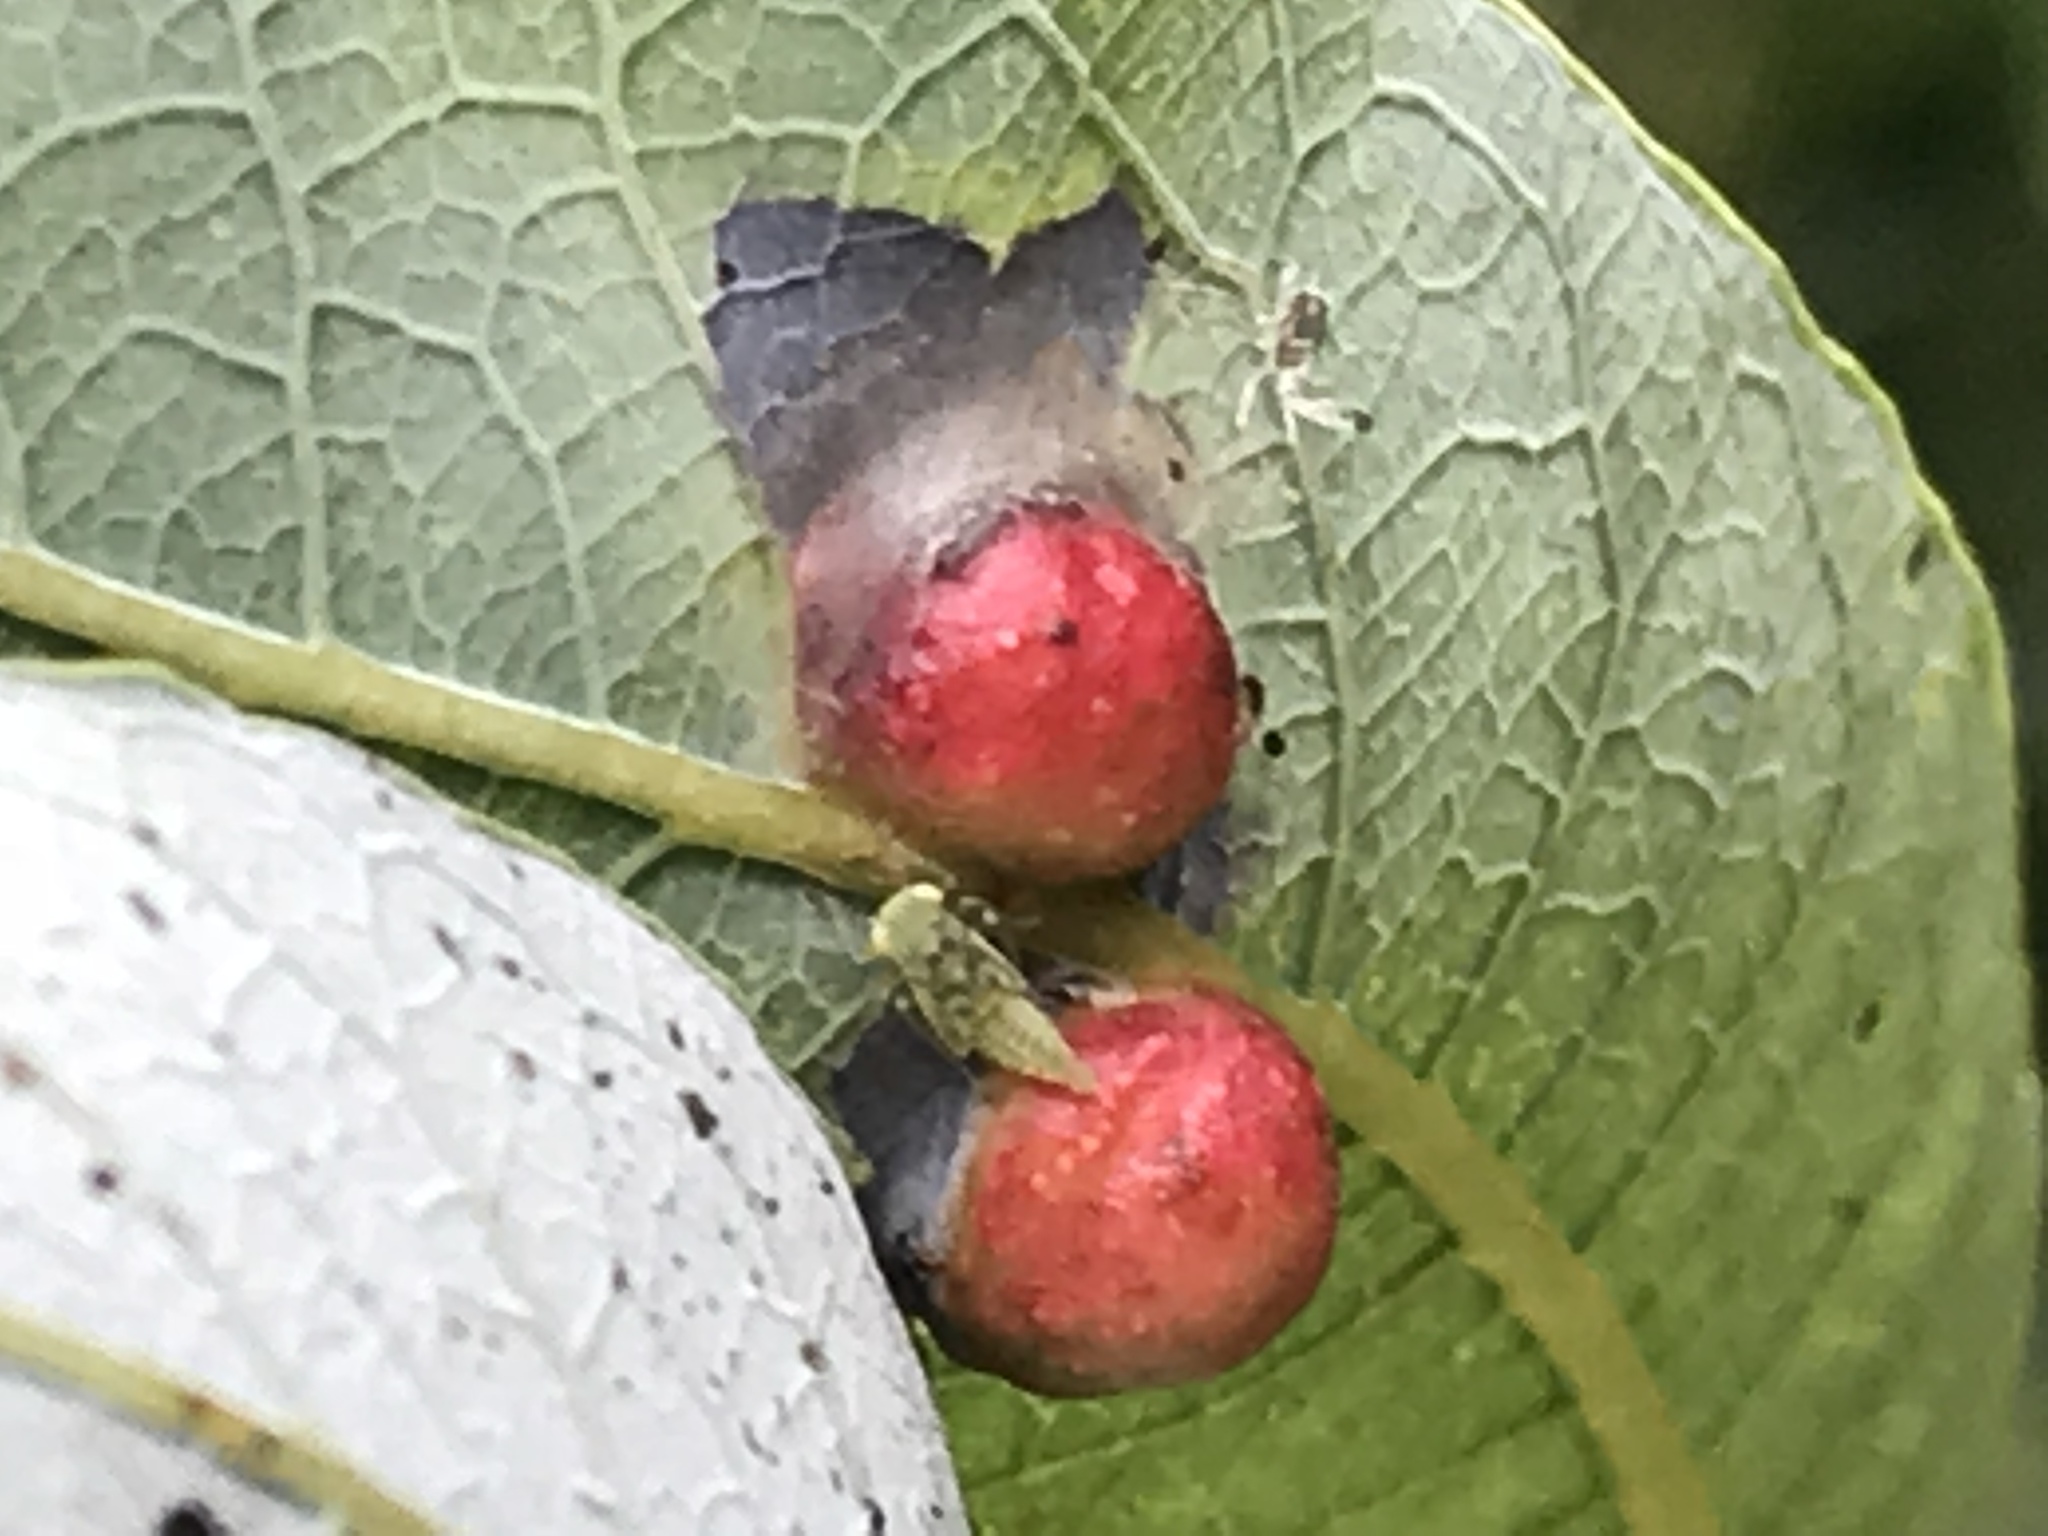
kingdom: Animalia
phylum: Arthropoda
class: Insecta
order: Hymenoptera
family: Tenthredinidae
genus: Euura
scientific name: Euura
